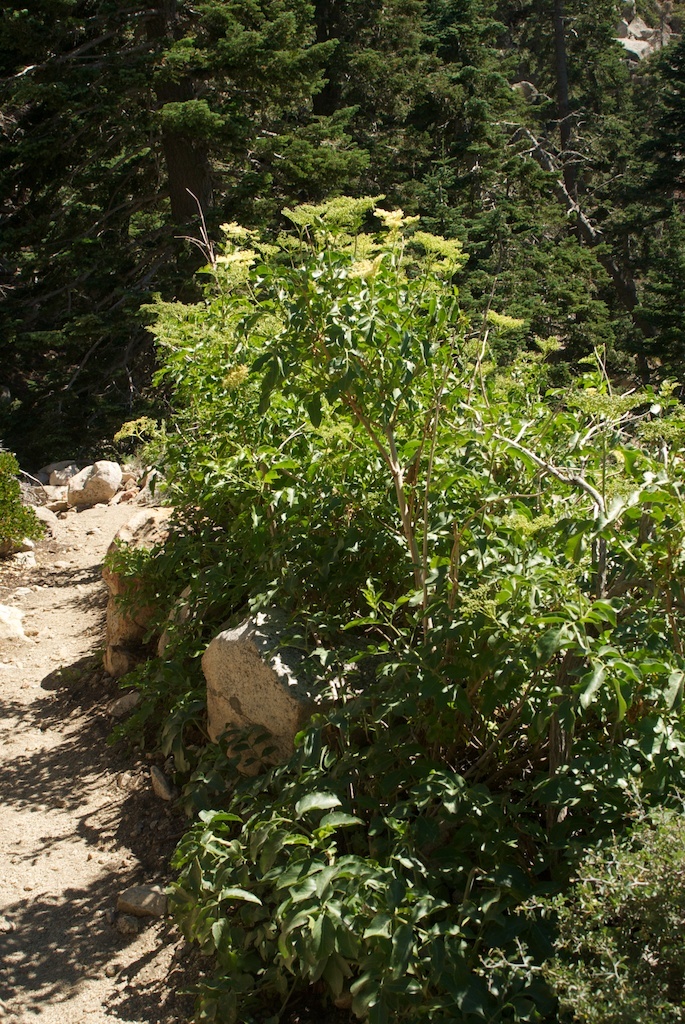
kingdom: Plantae
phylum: Tracheophyta
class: Magnoliopsida
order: Dipsacales
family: Viburnaceae
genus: Sambucus
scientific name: Sambucus cerulea
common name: Blue elder
